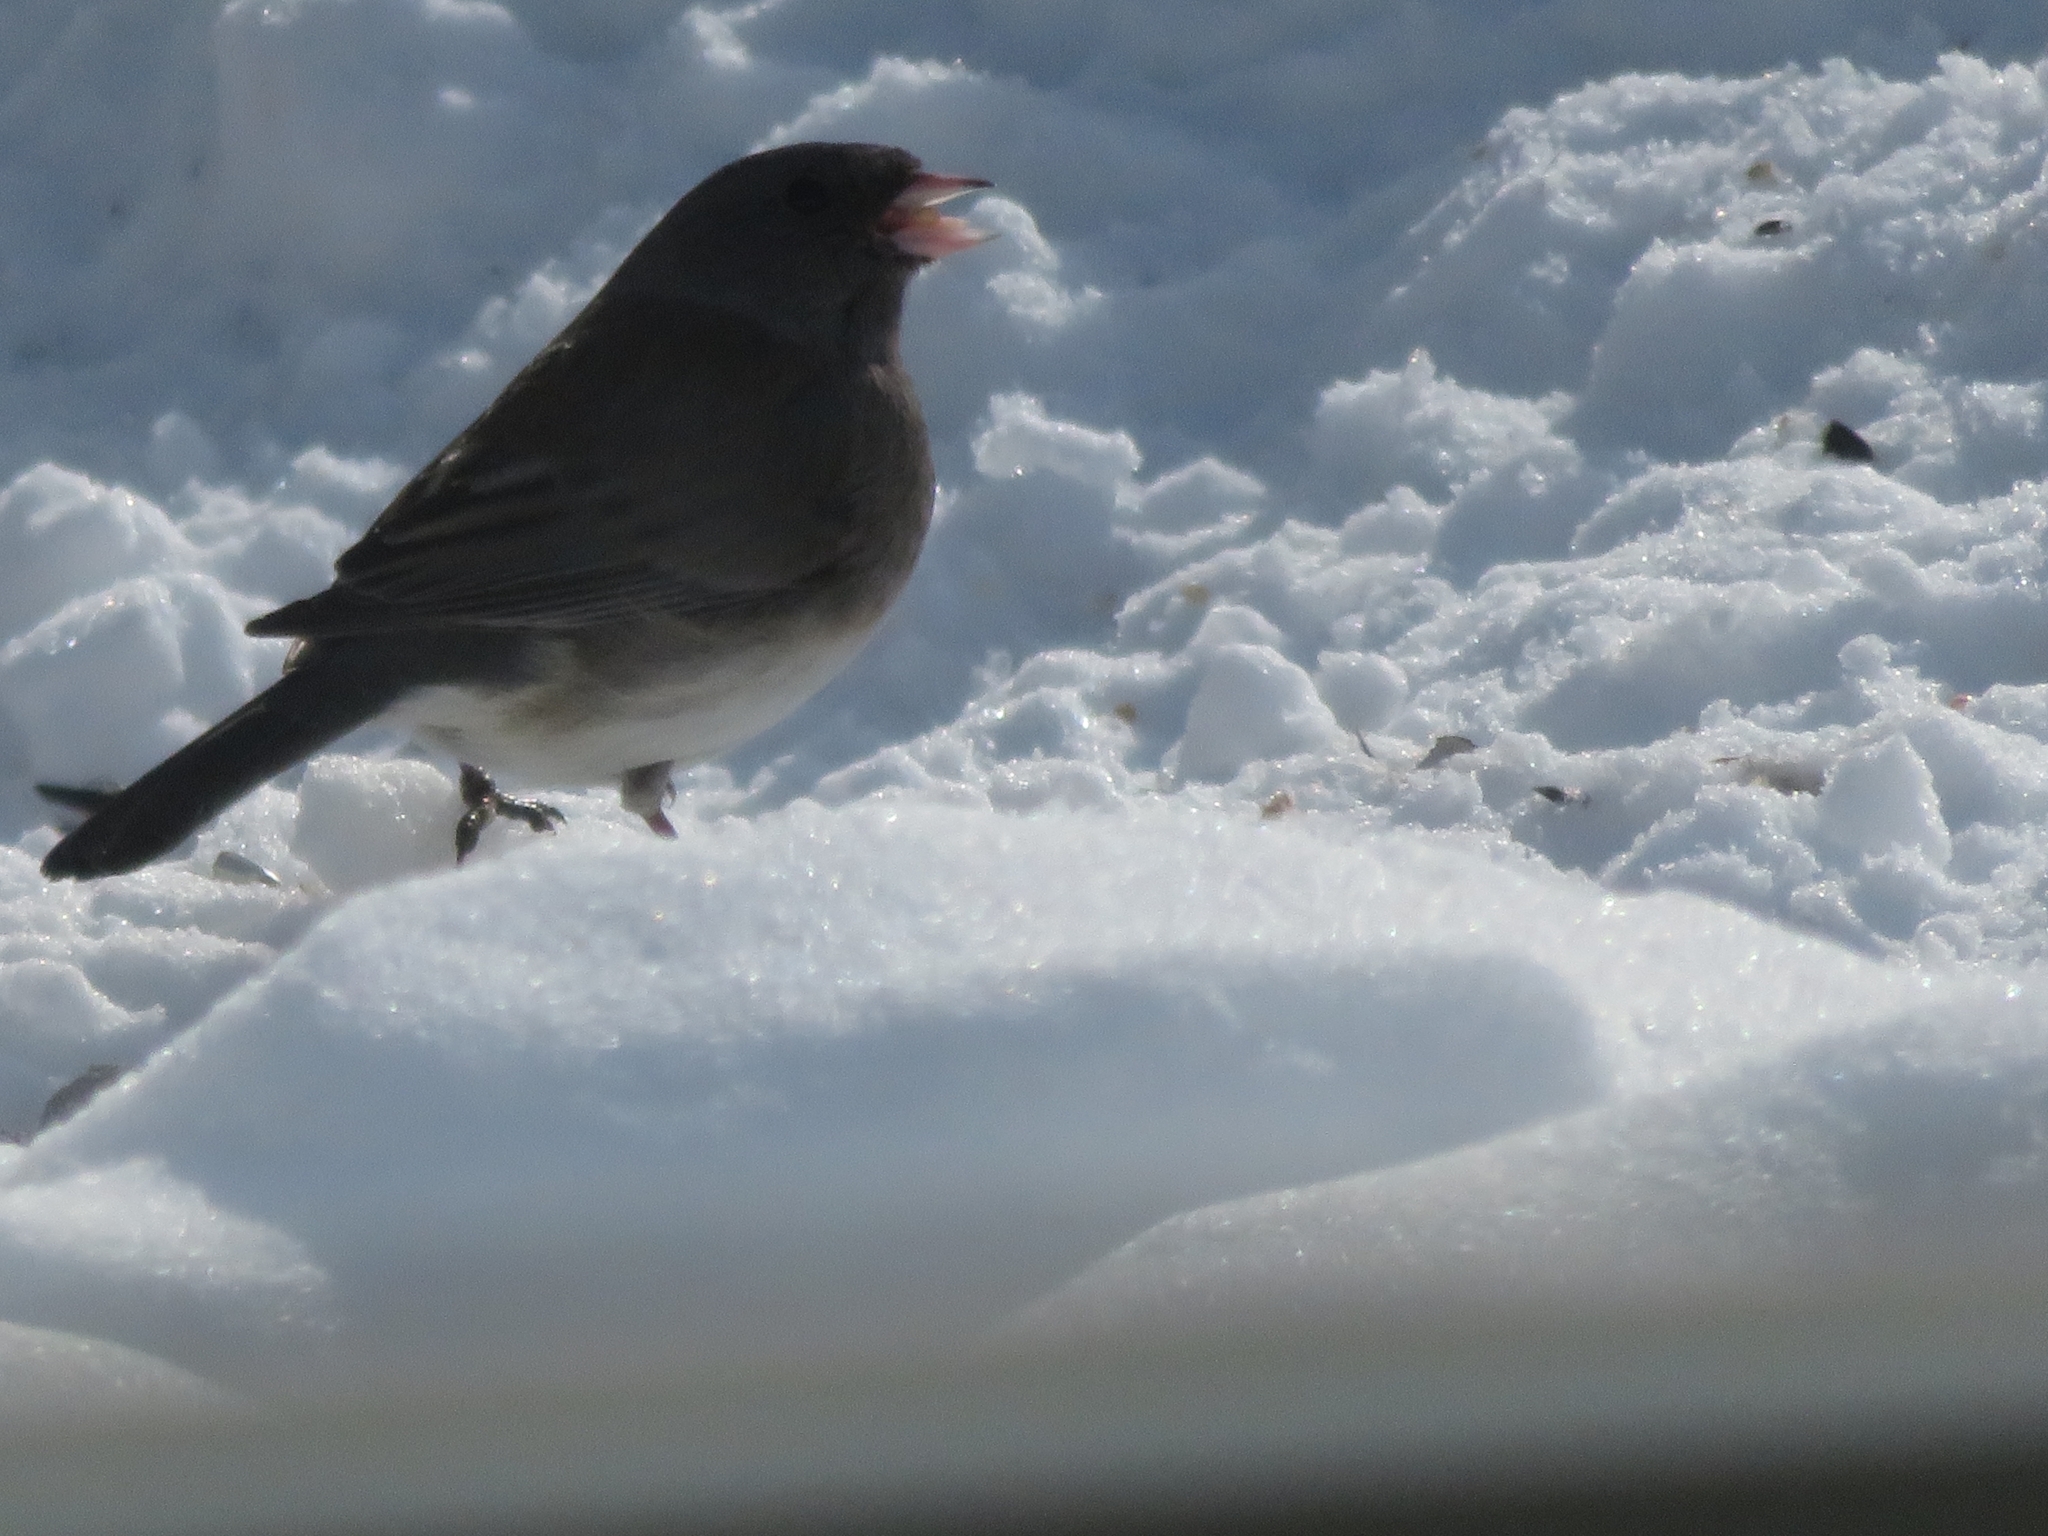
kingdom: Animalia
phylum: Chordata
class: Aves
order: Passeriformes
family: Passerellidae
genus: Junco
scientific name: Junco hyemalis
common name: Dark-eyed junco
